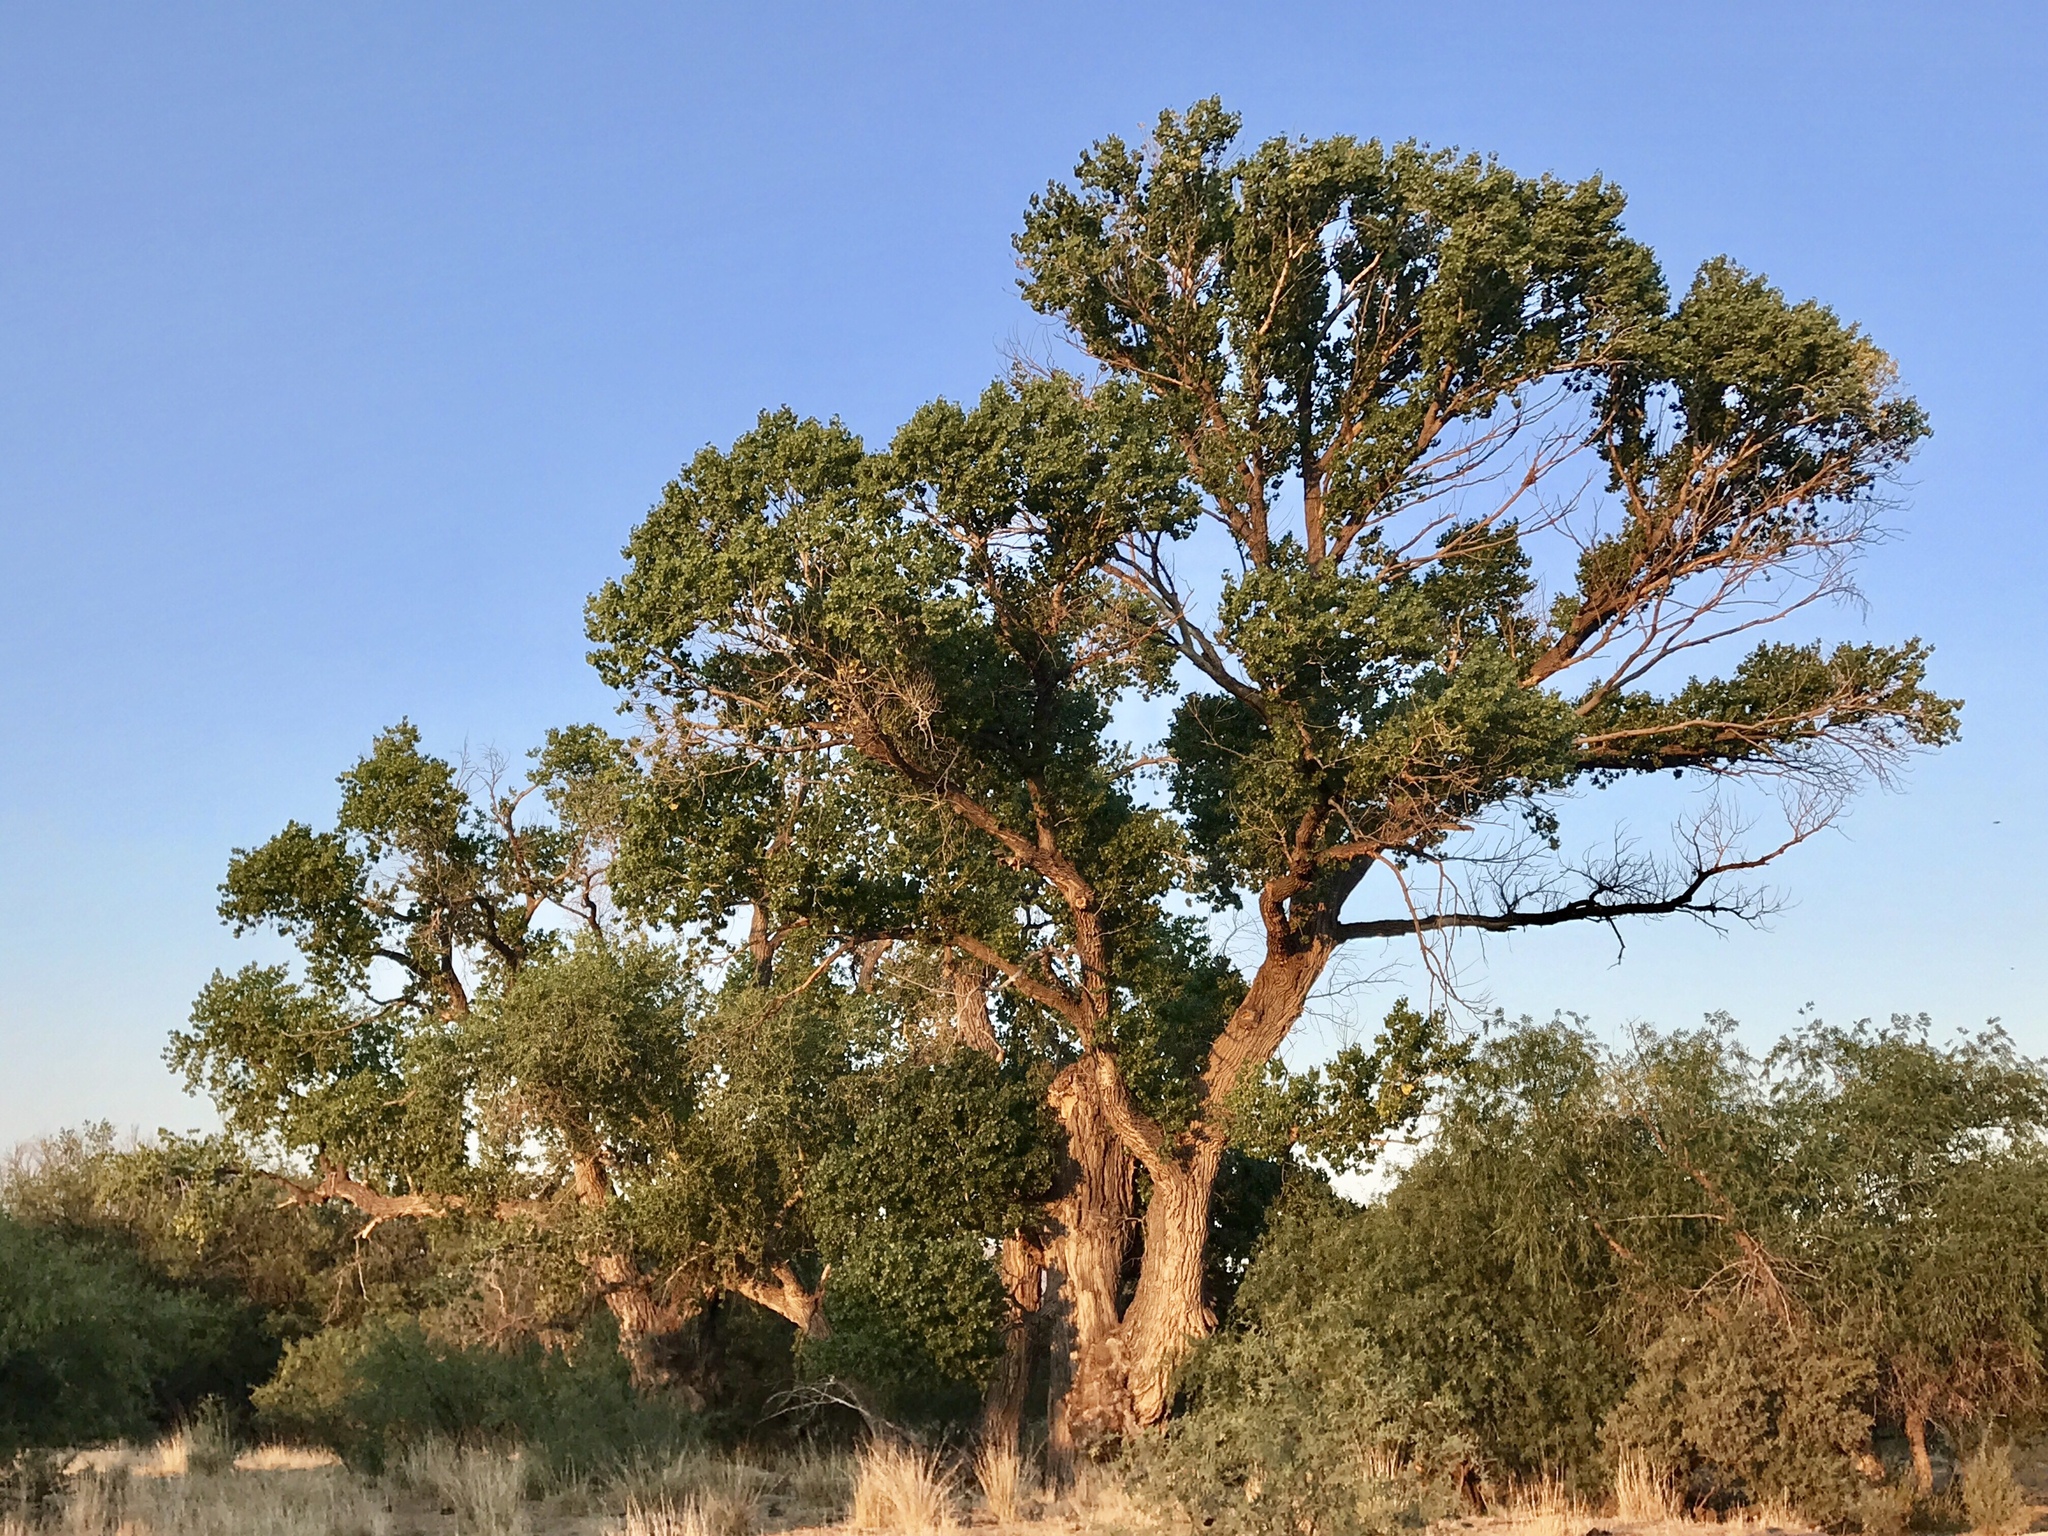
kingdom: Plantae
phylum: Tracheophyta
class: Magnoliopsida
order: Malpighiales
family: Salicaceae
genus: Populus
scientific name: Populus fremontii
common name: Fremont's cottonwood
